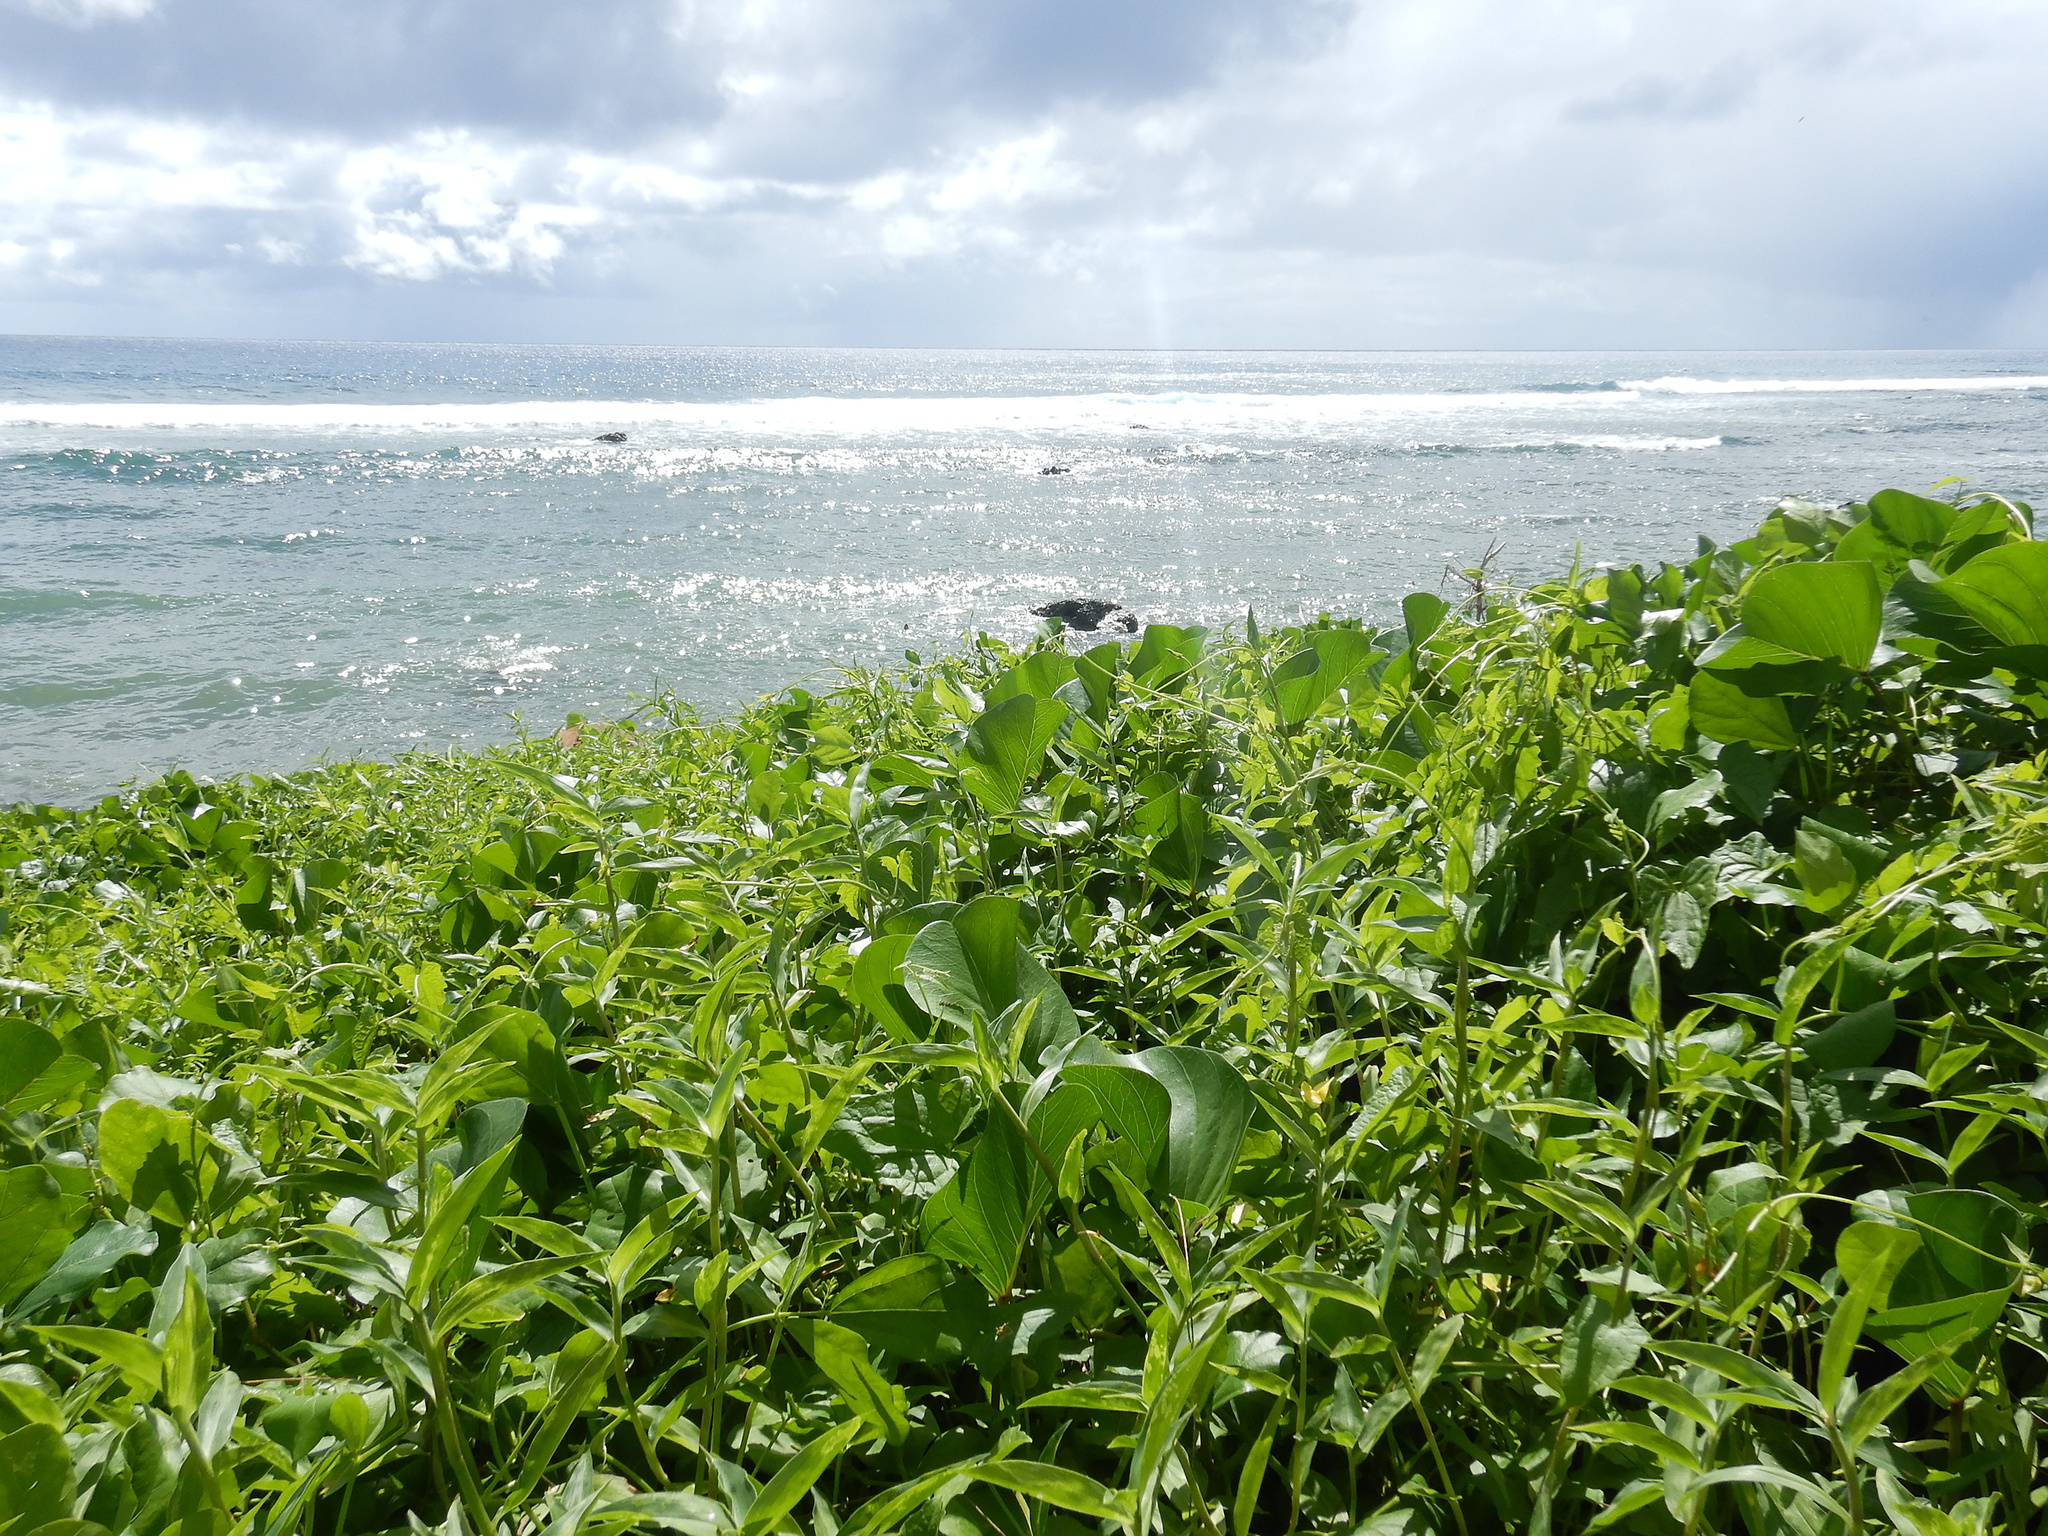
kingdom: Plantae
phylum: Tracheophyta
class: Liliopsida
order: Commelinales
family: Commelinaceae
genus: Commelina
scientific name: Commelina diffusa
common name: Climbing dayflower
